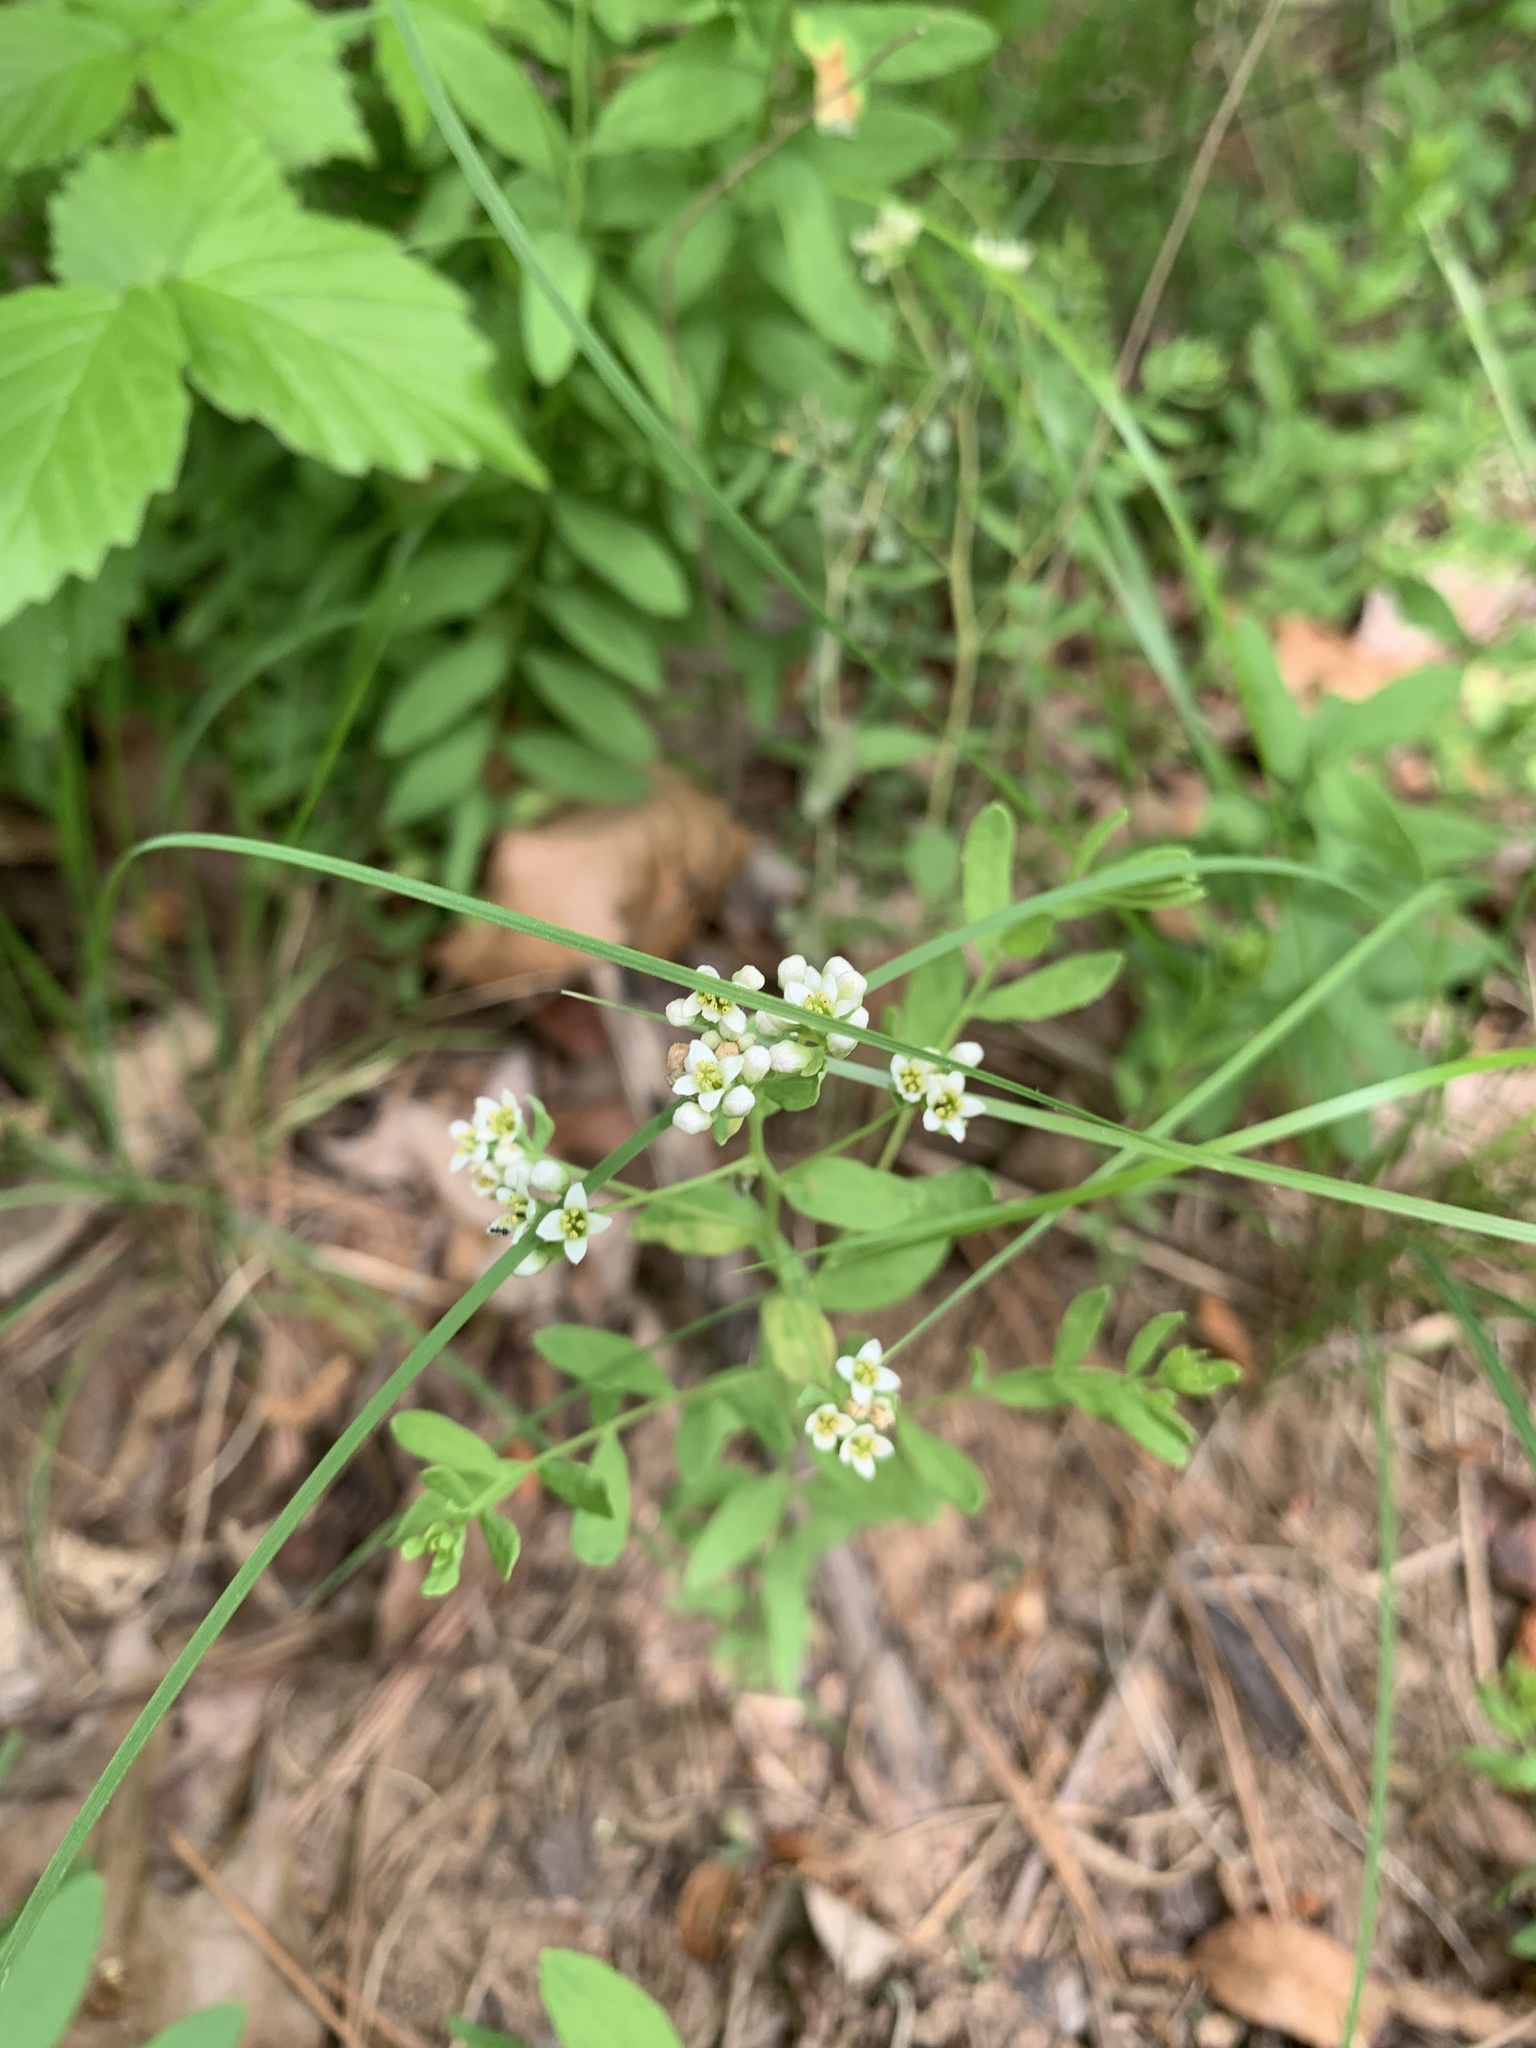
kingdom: Plantae
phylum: Tracheophyta
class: Magnoliopsida
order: Santalales
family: Comandraceae
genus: Comandra
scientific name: Comandra umbellata
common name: Bastard toadflax
